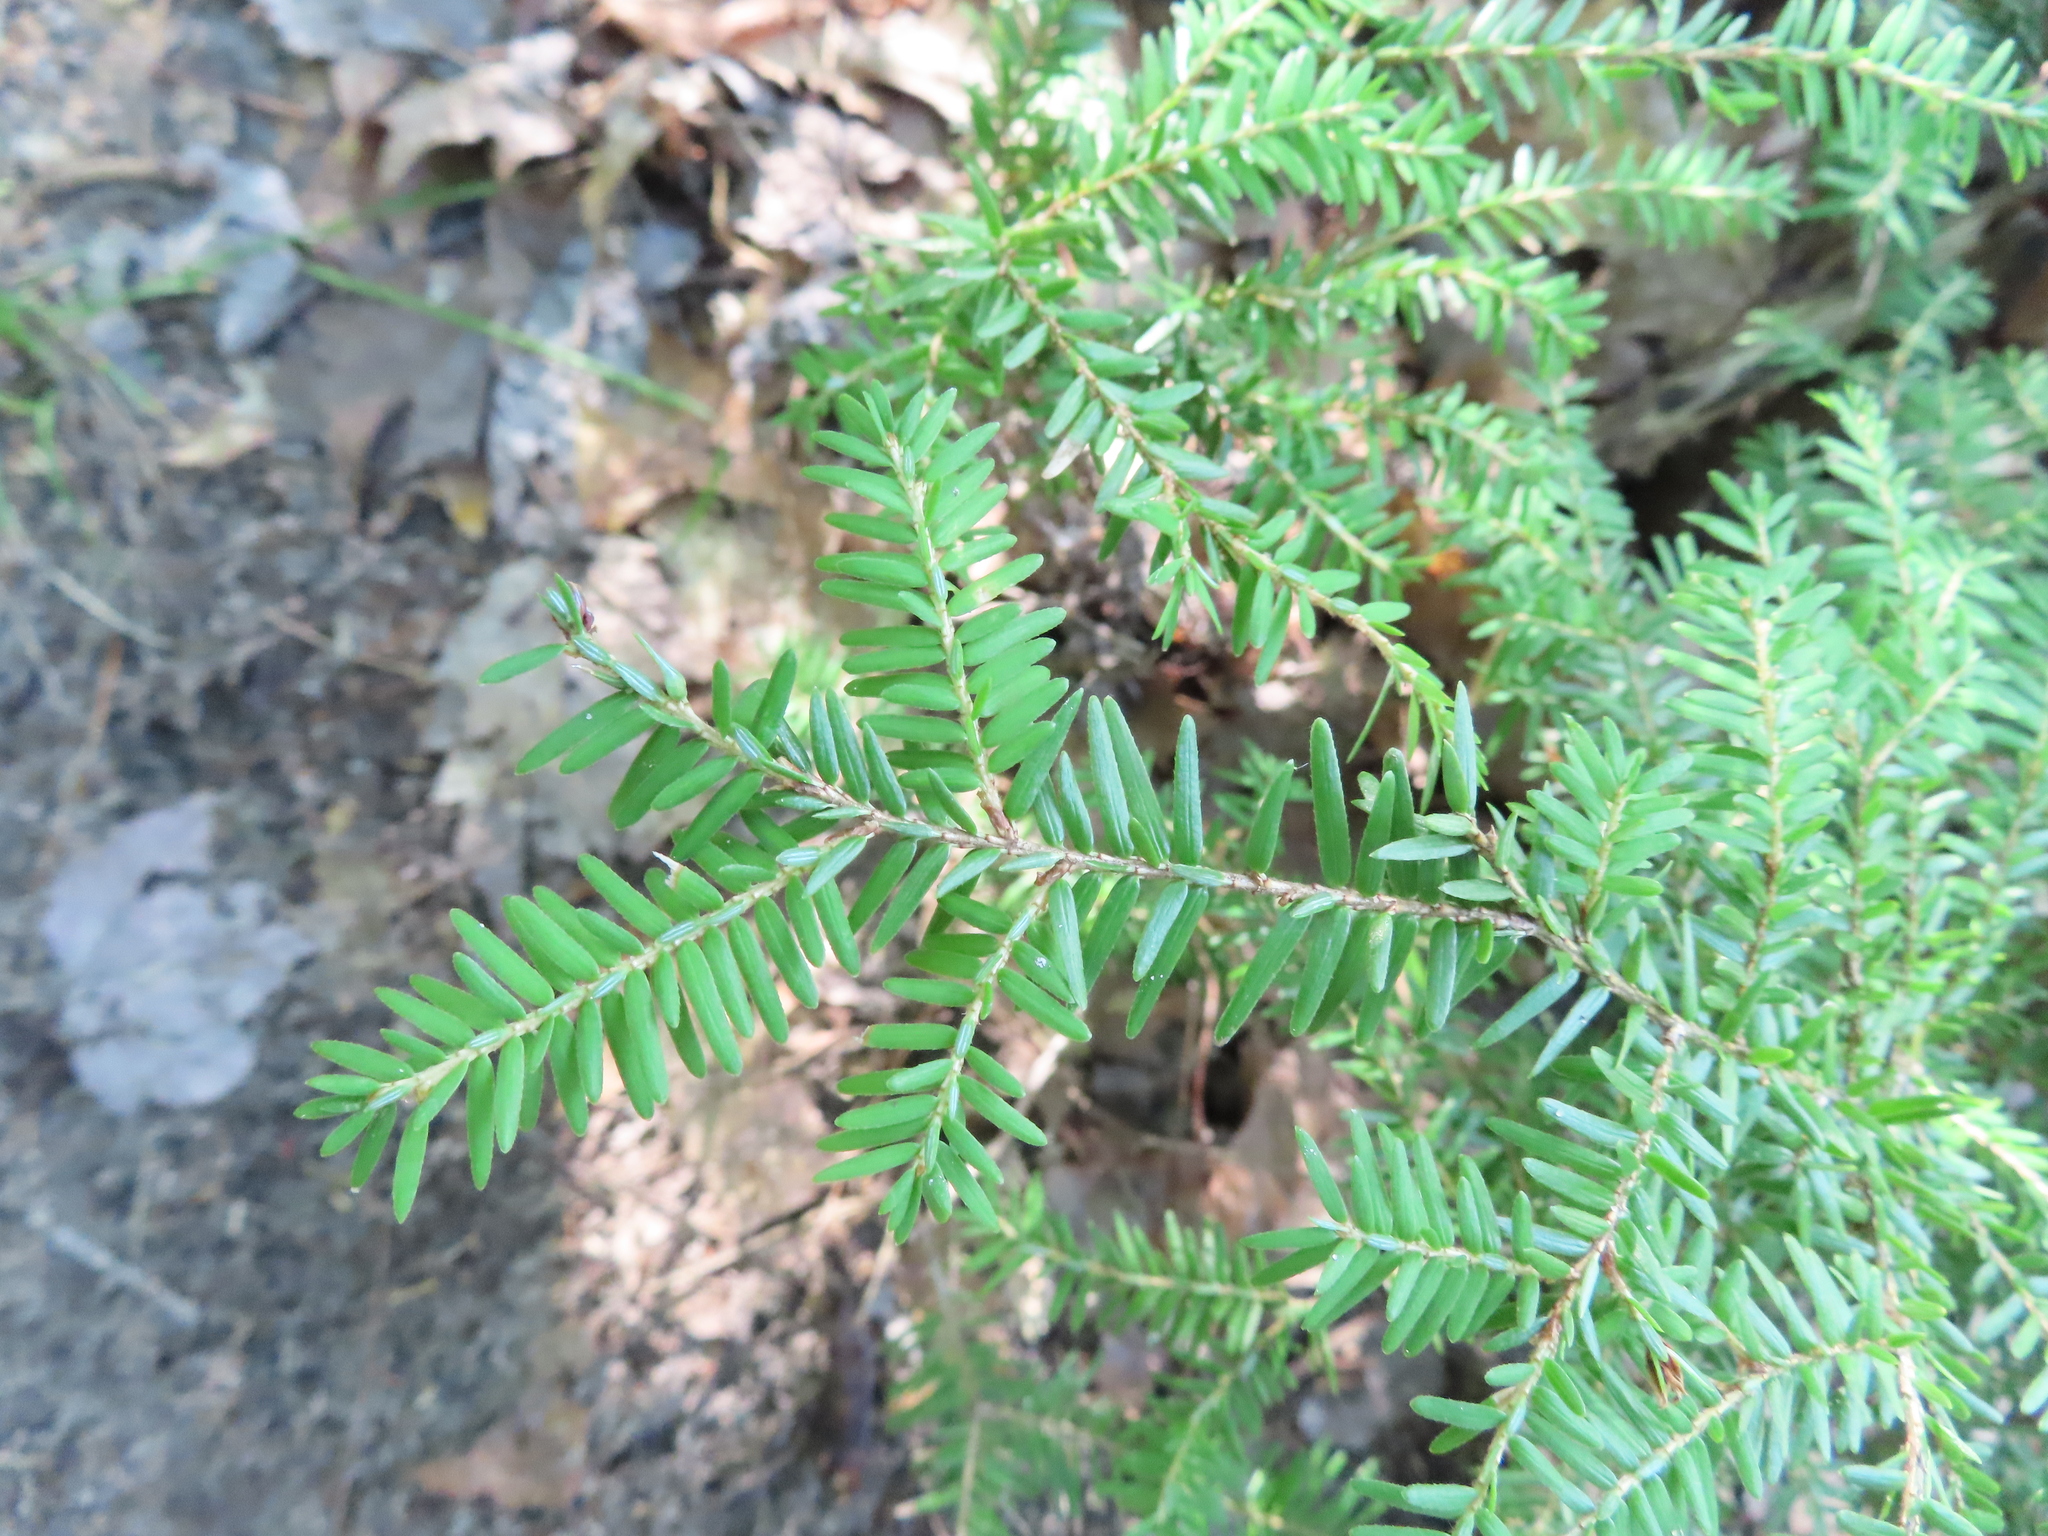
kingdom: Plantae
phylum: Tracheophyta
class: Pinopsida
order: Pinales
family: Pinaceae
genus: Tsuga
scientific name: Tsuga canadensis
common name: Eastern hemlock
